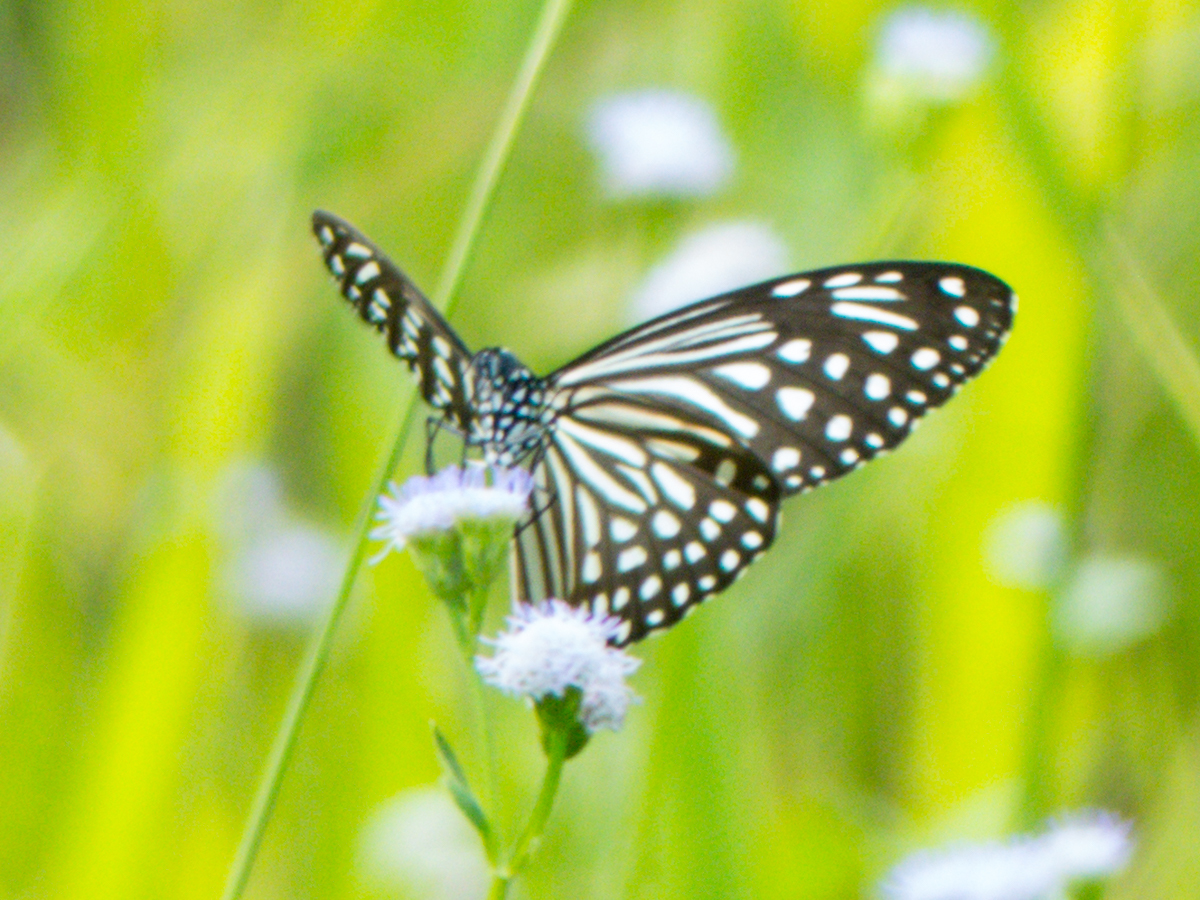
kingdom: Animalia
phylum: Arthropoda
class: Insecta
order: Lepidoptera
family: Nymphalidae
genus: Parantica
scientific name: Parantica agleoides
